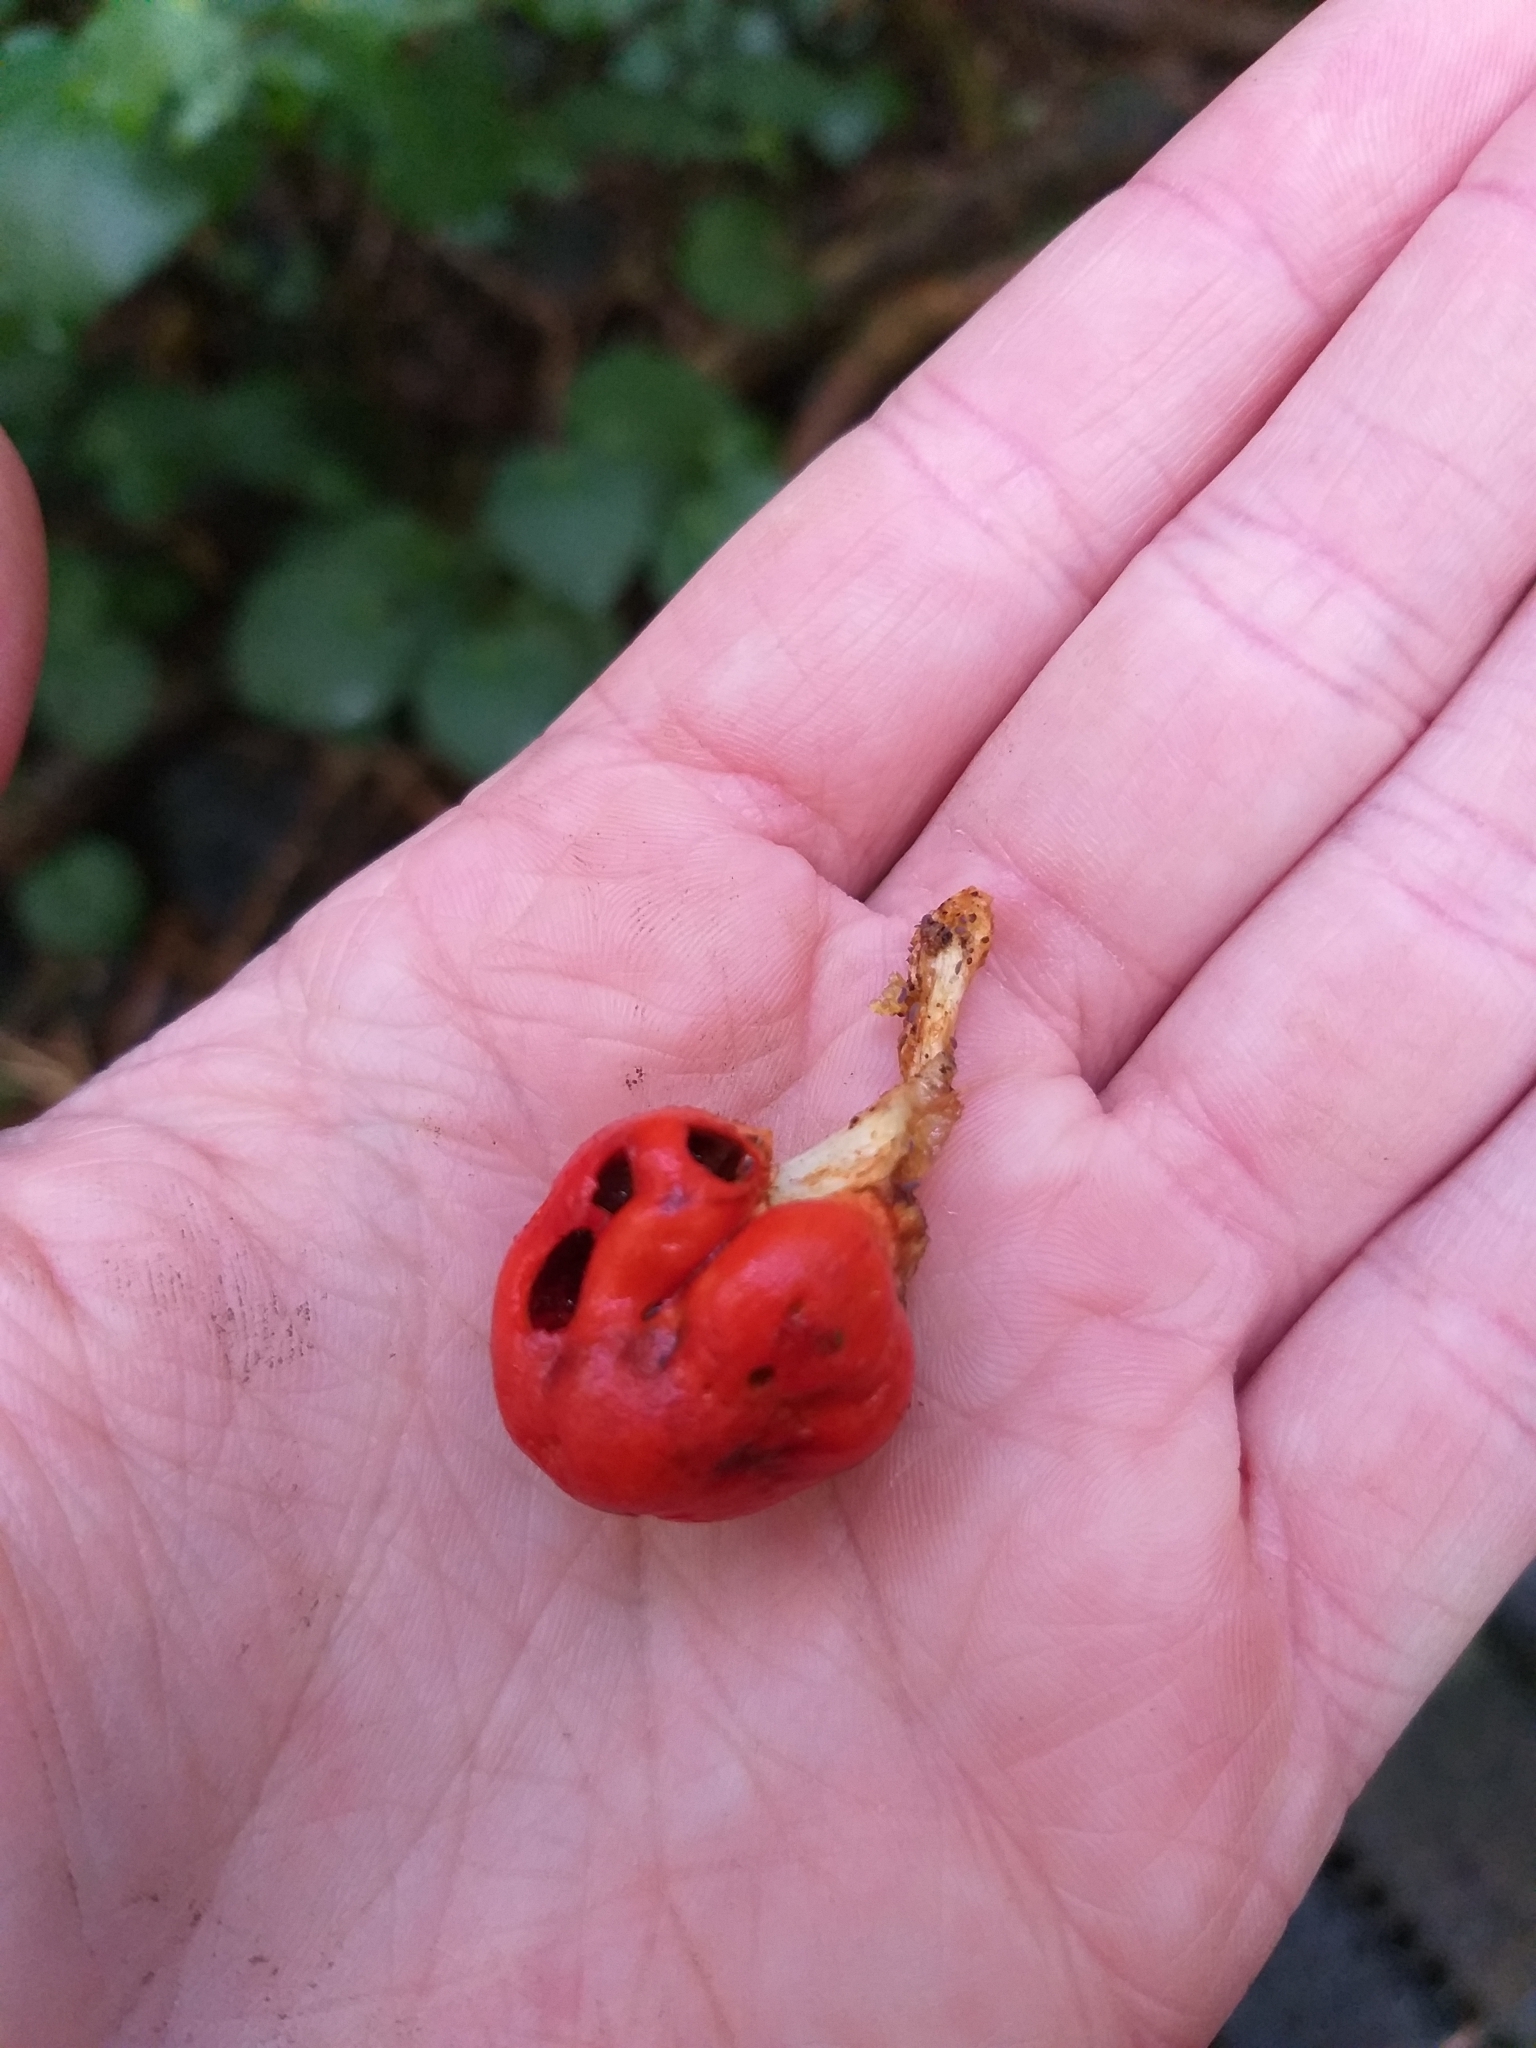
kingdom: Fungi
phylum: Basidiomycota
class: Agaricomycetes
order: Agaricales
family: Strophariaceae
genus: Leratiomyces
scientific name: Leratiomyces erythrocephalus
